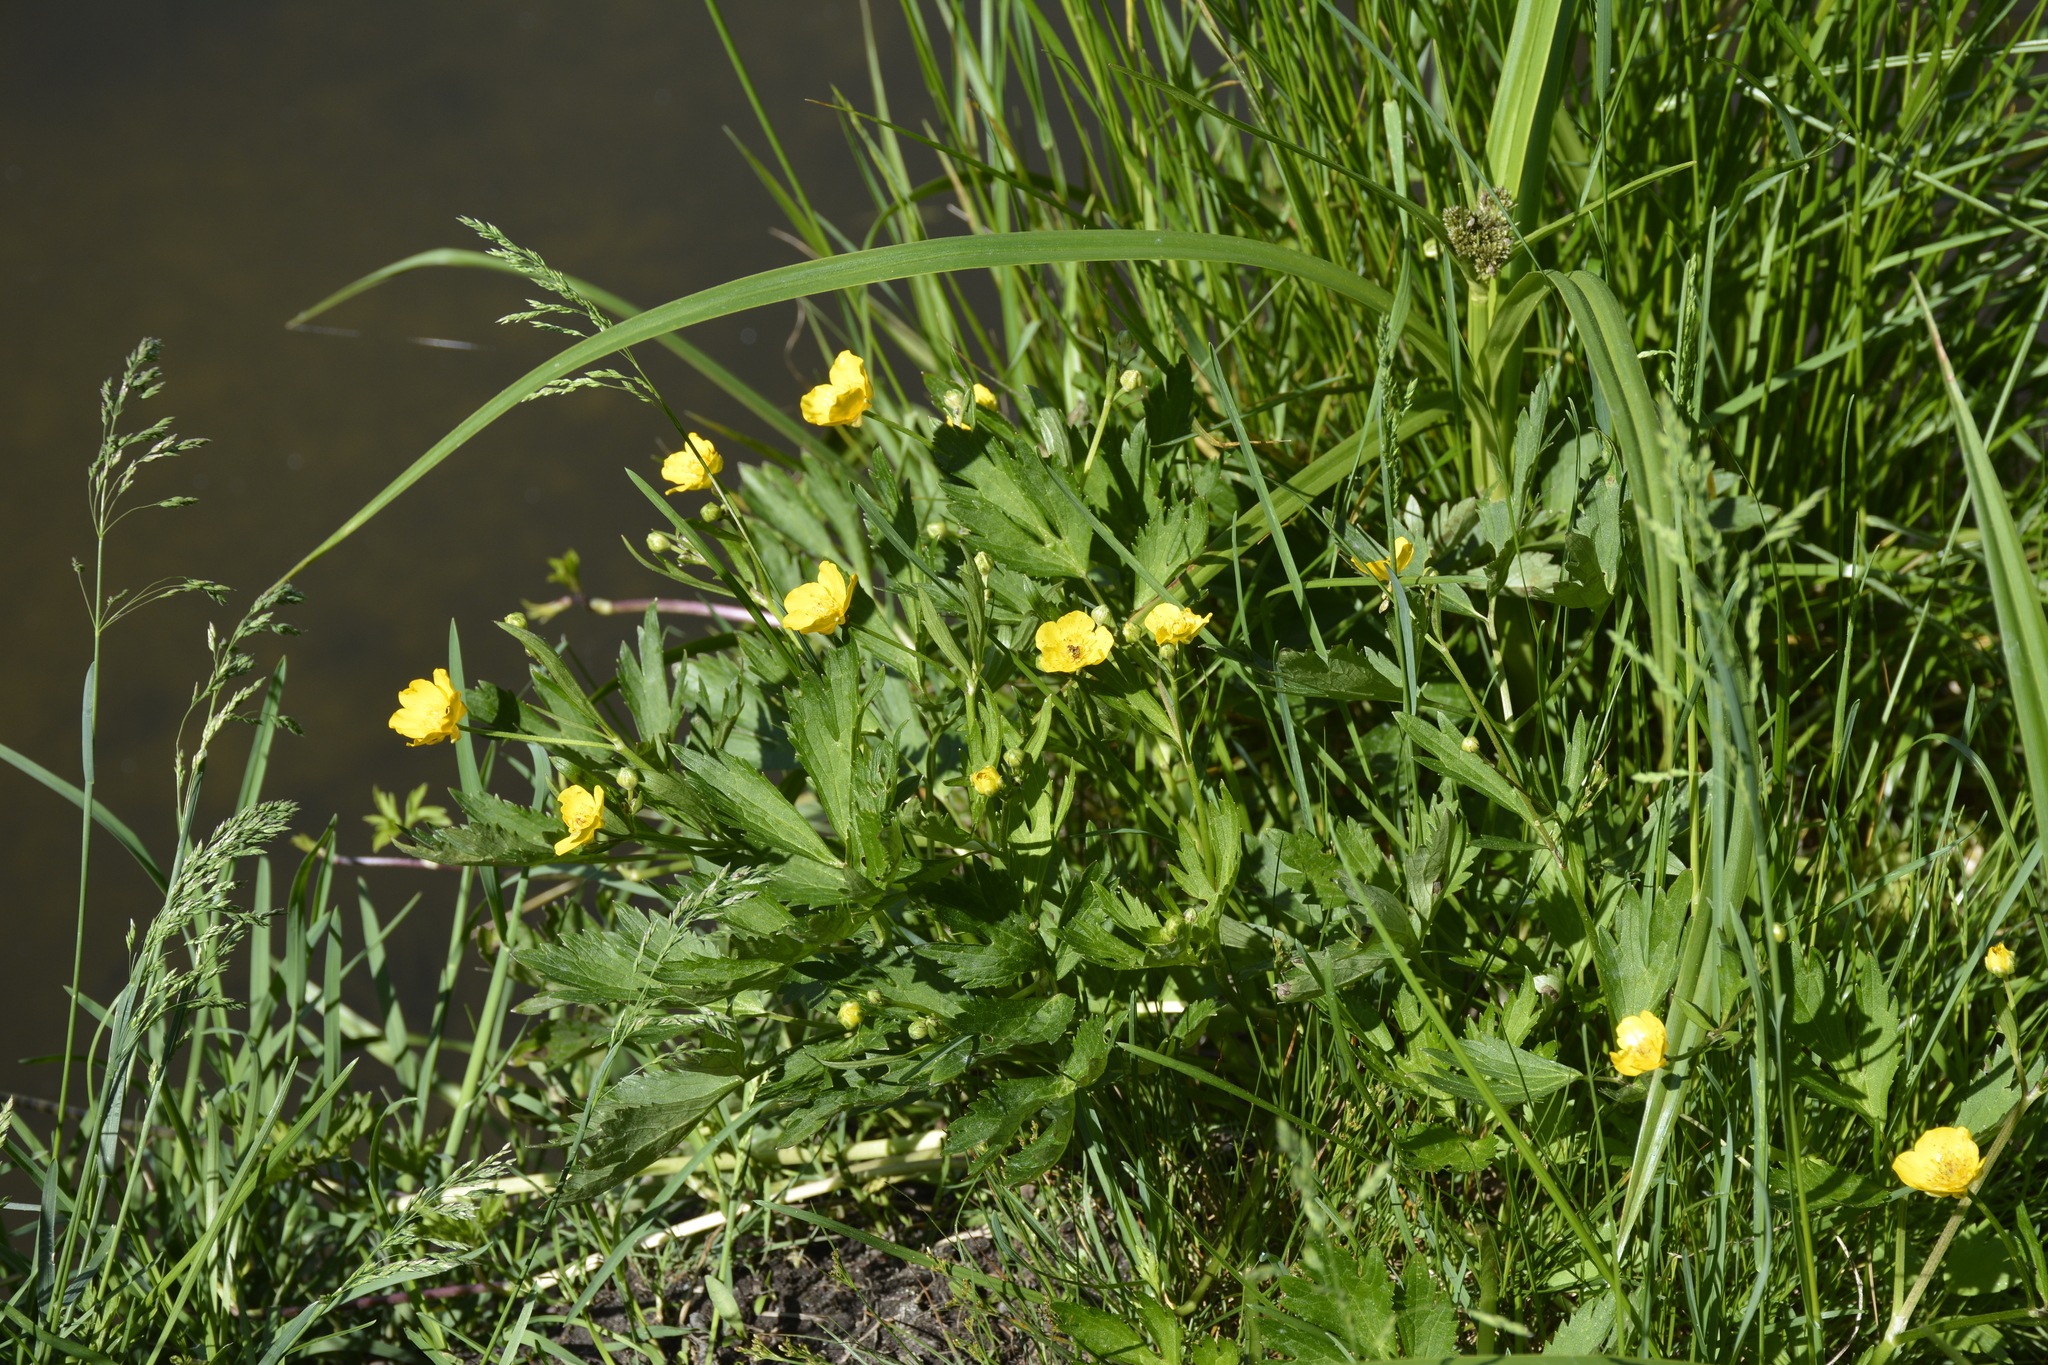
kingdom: Plantae
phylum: Tracheophyta
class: Magnoliopsida
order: Ranunculales
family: Ranunculaceae
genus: Ranunculus
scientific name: Ranunculus repens
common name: Creeping buttercup
